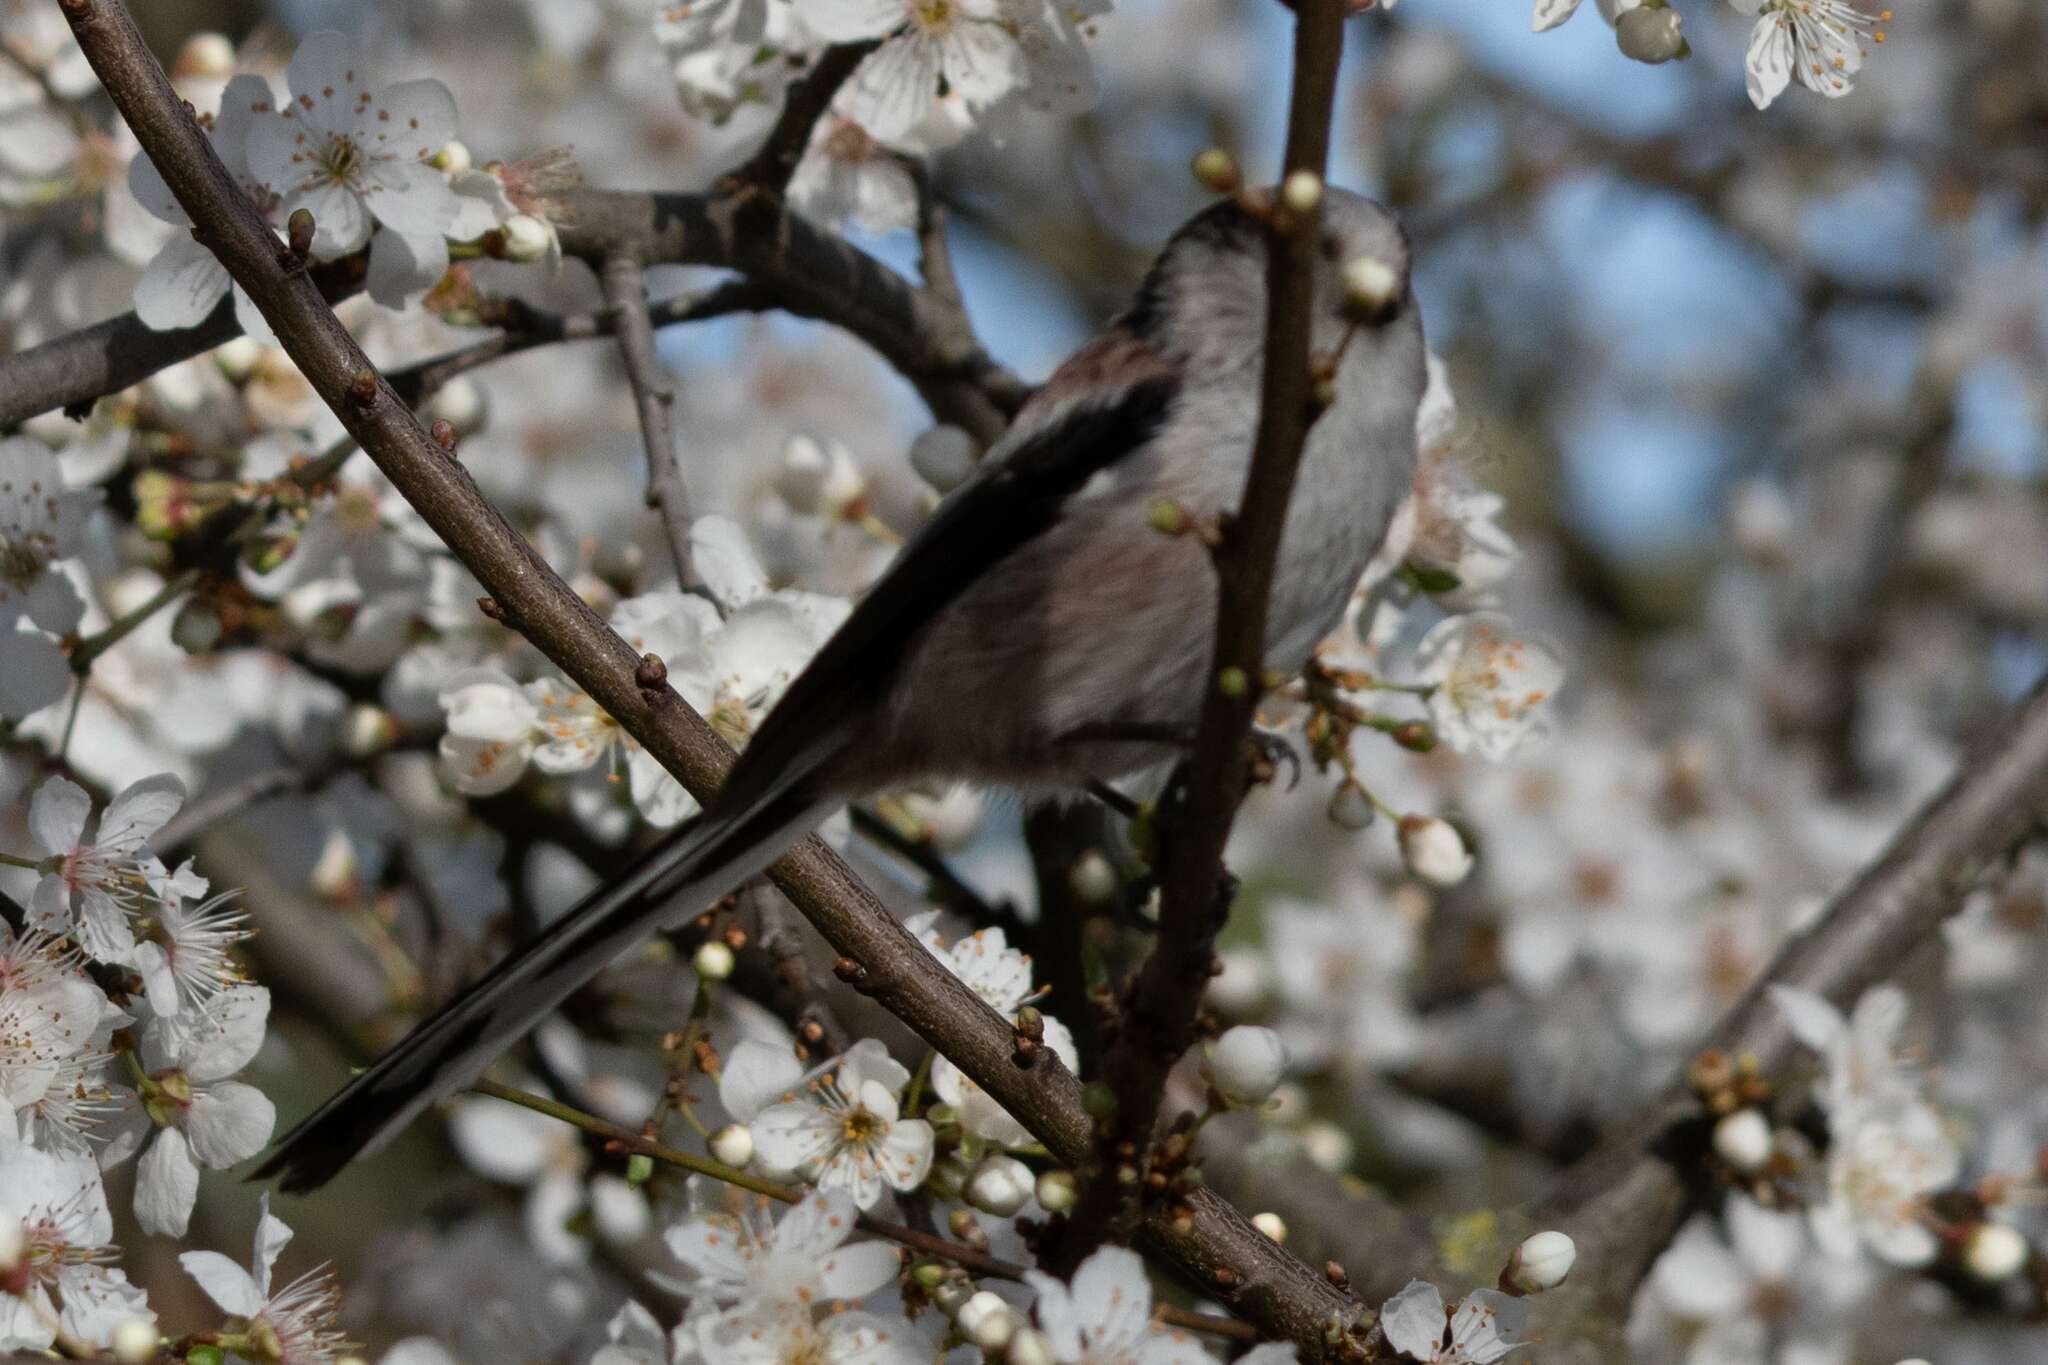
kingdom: Animalia
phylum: Chordata
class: Aves
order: Passeriformes
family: Aegithalidae
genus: Aegithalos
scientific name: Aegithalos caudatus
